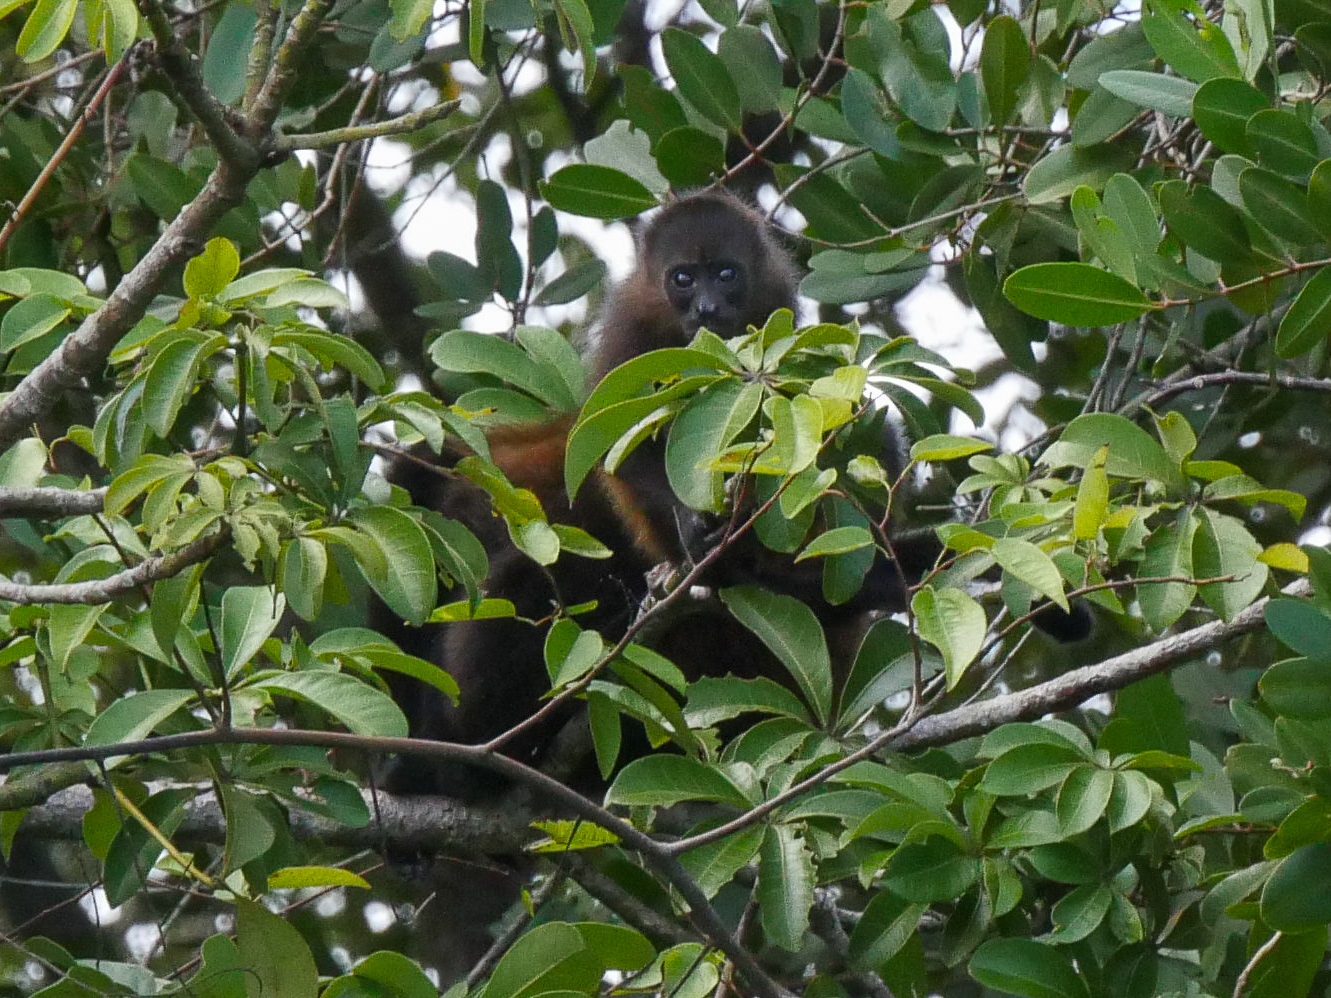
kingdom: Animalia
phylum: Chordata
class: Mammalia
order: Primates
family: Atelidae
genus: Alouatta
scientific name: Alouatta palliata
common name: Mantled howler
